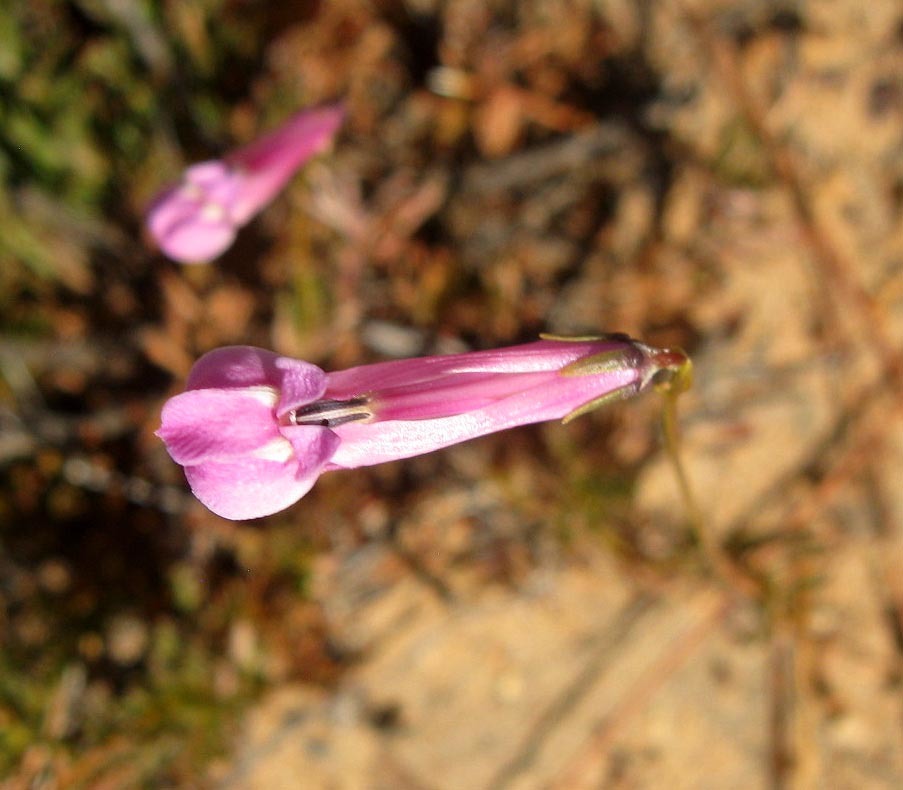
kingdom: Plantae
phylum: Tracheophyta
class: Magnoliopsida
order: Asterales
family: Campanulaceae
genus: Lobelia
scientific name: Lobelia coronopifolia
